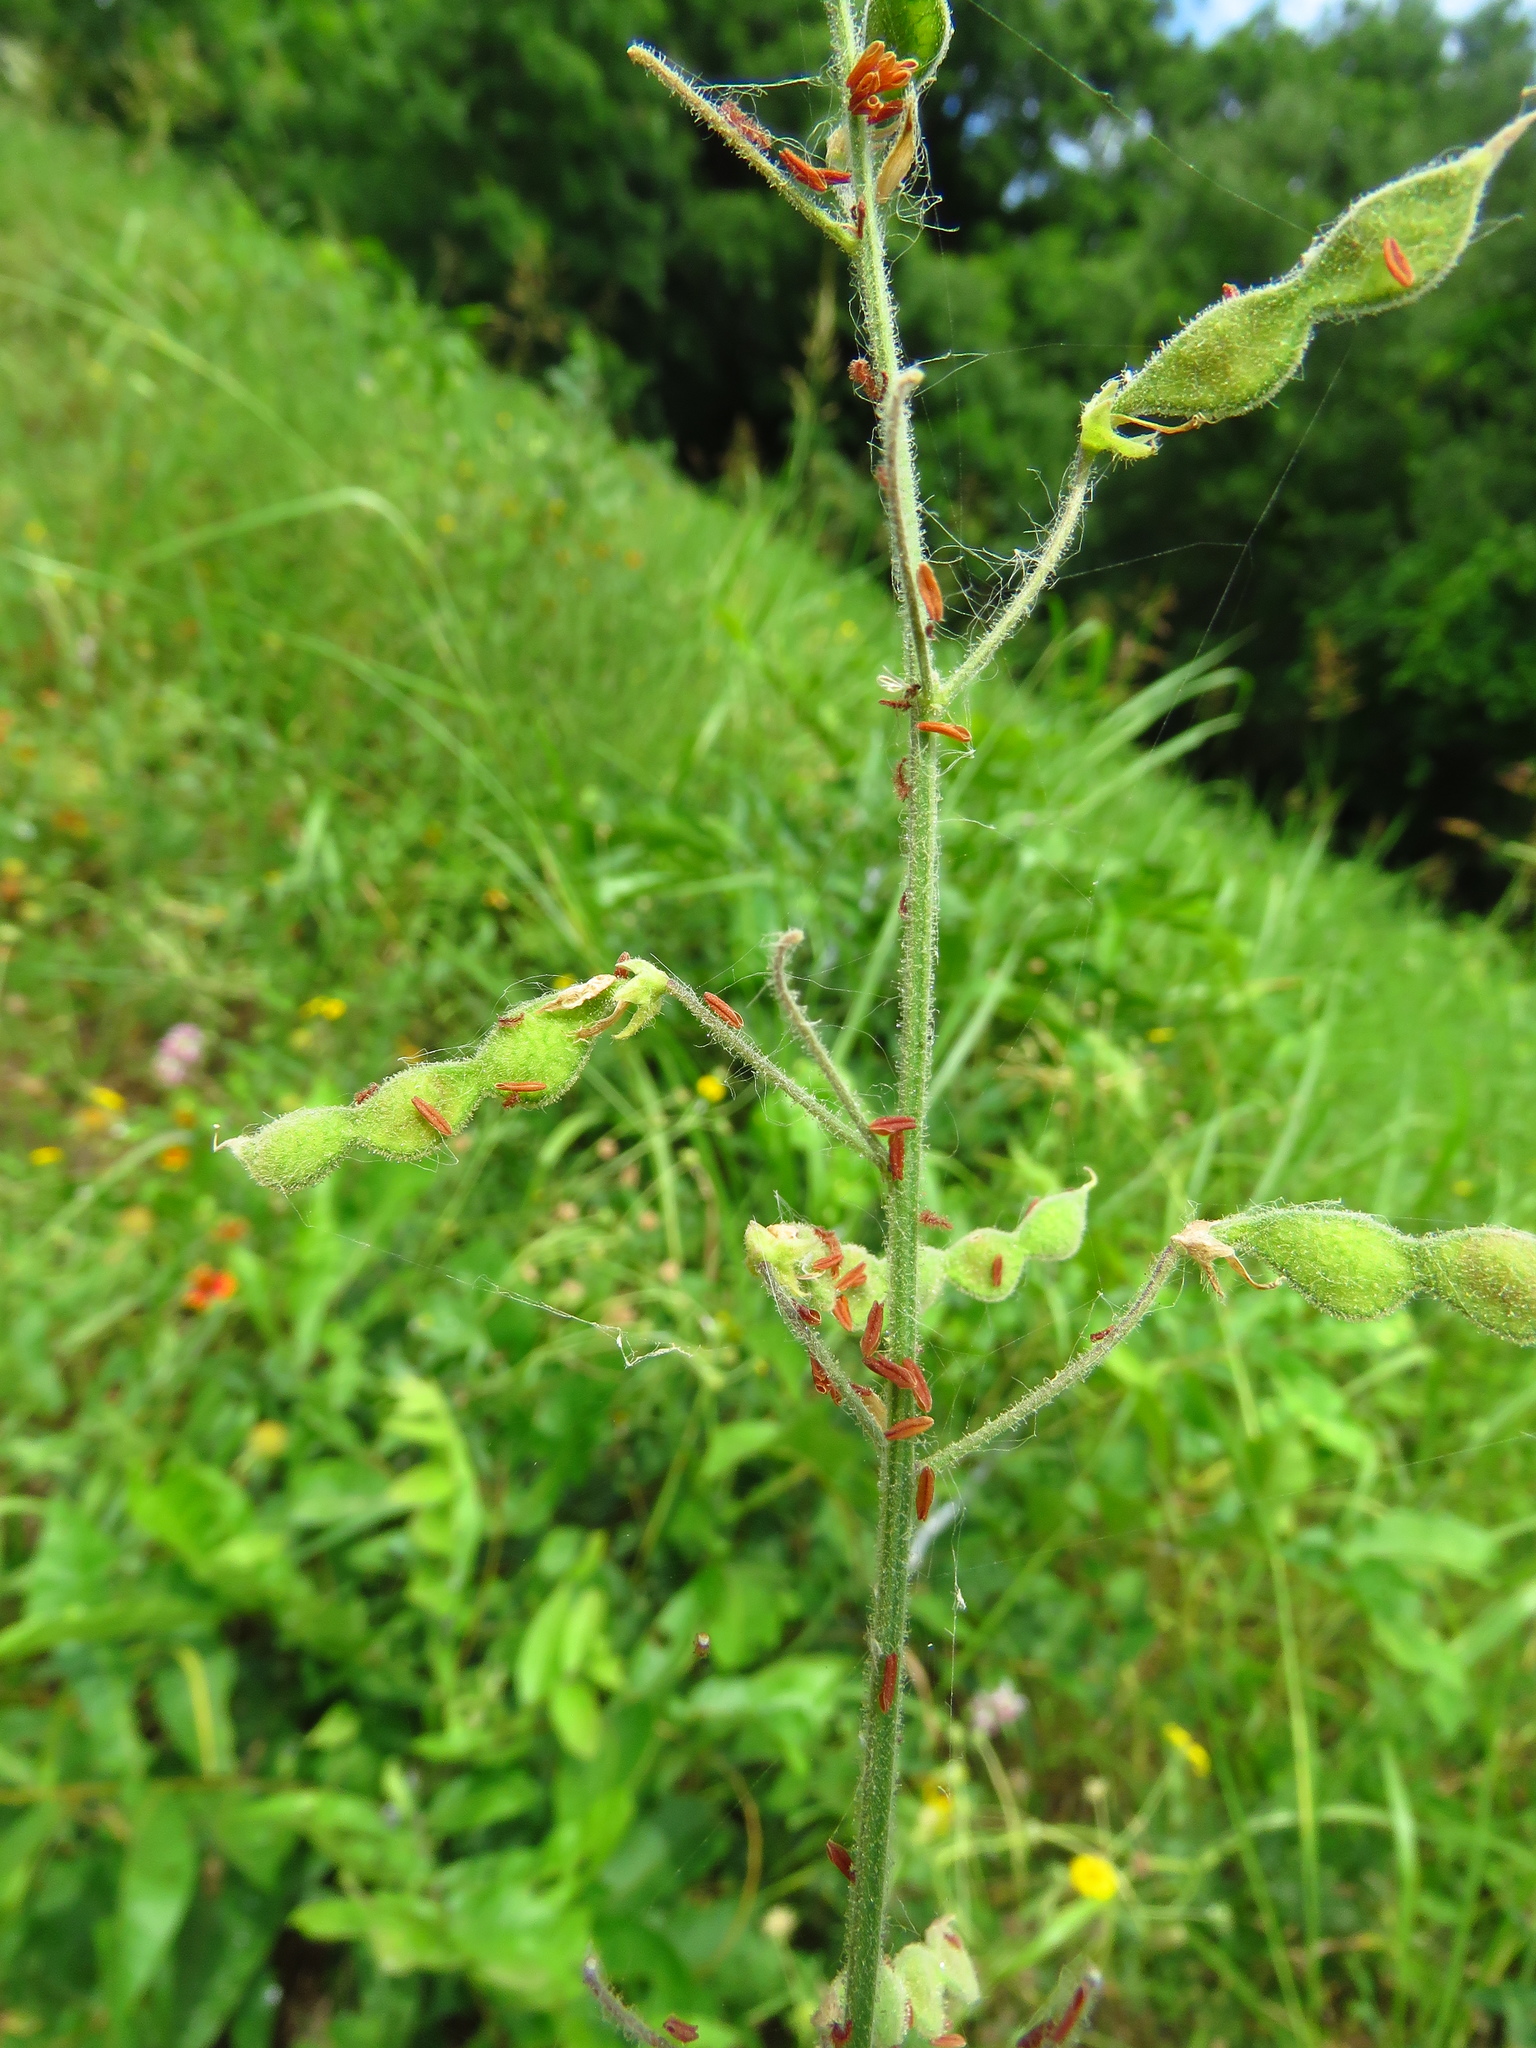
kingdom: Plantae
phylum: Tracheophyta
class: Magnoliopsida
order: Fabales
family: Fabaceae
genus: Desmodium
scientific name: Desmodium tweedyi
